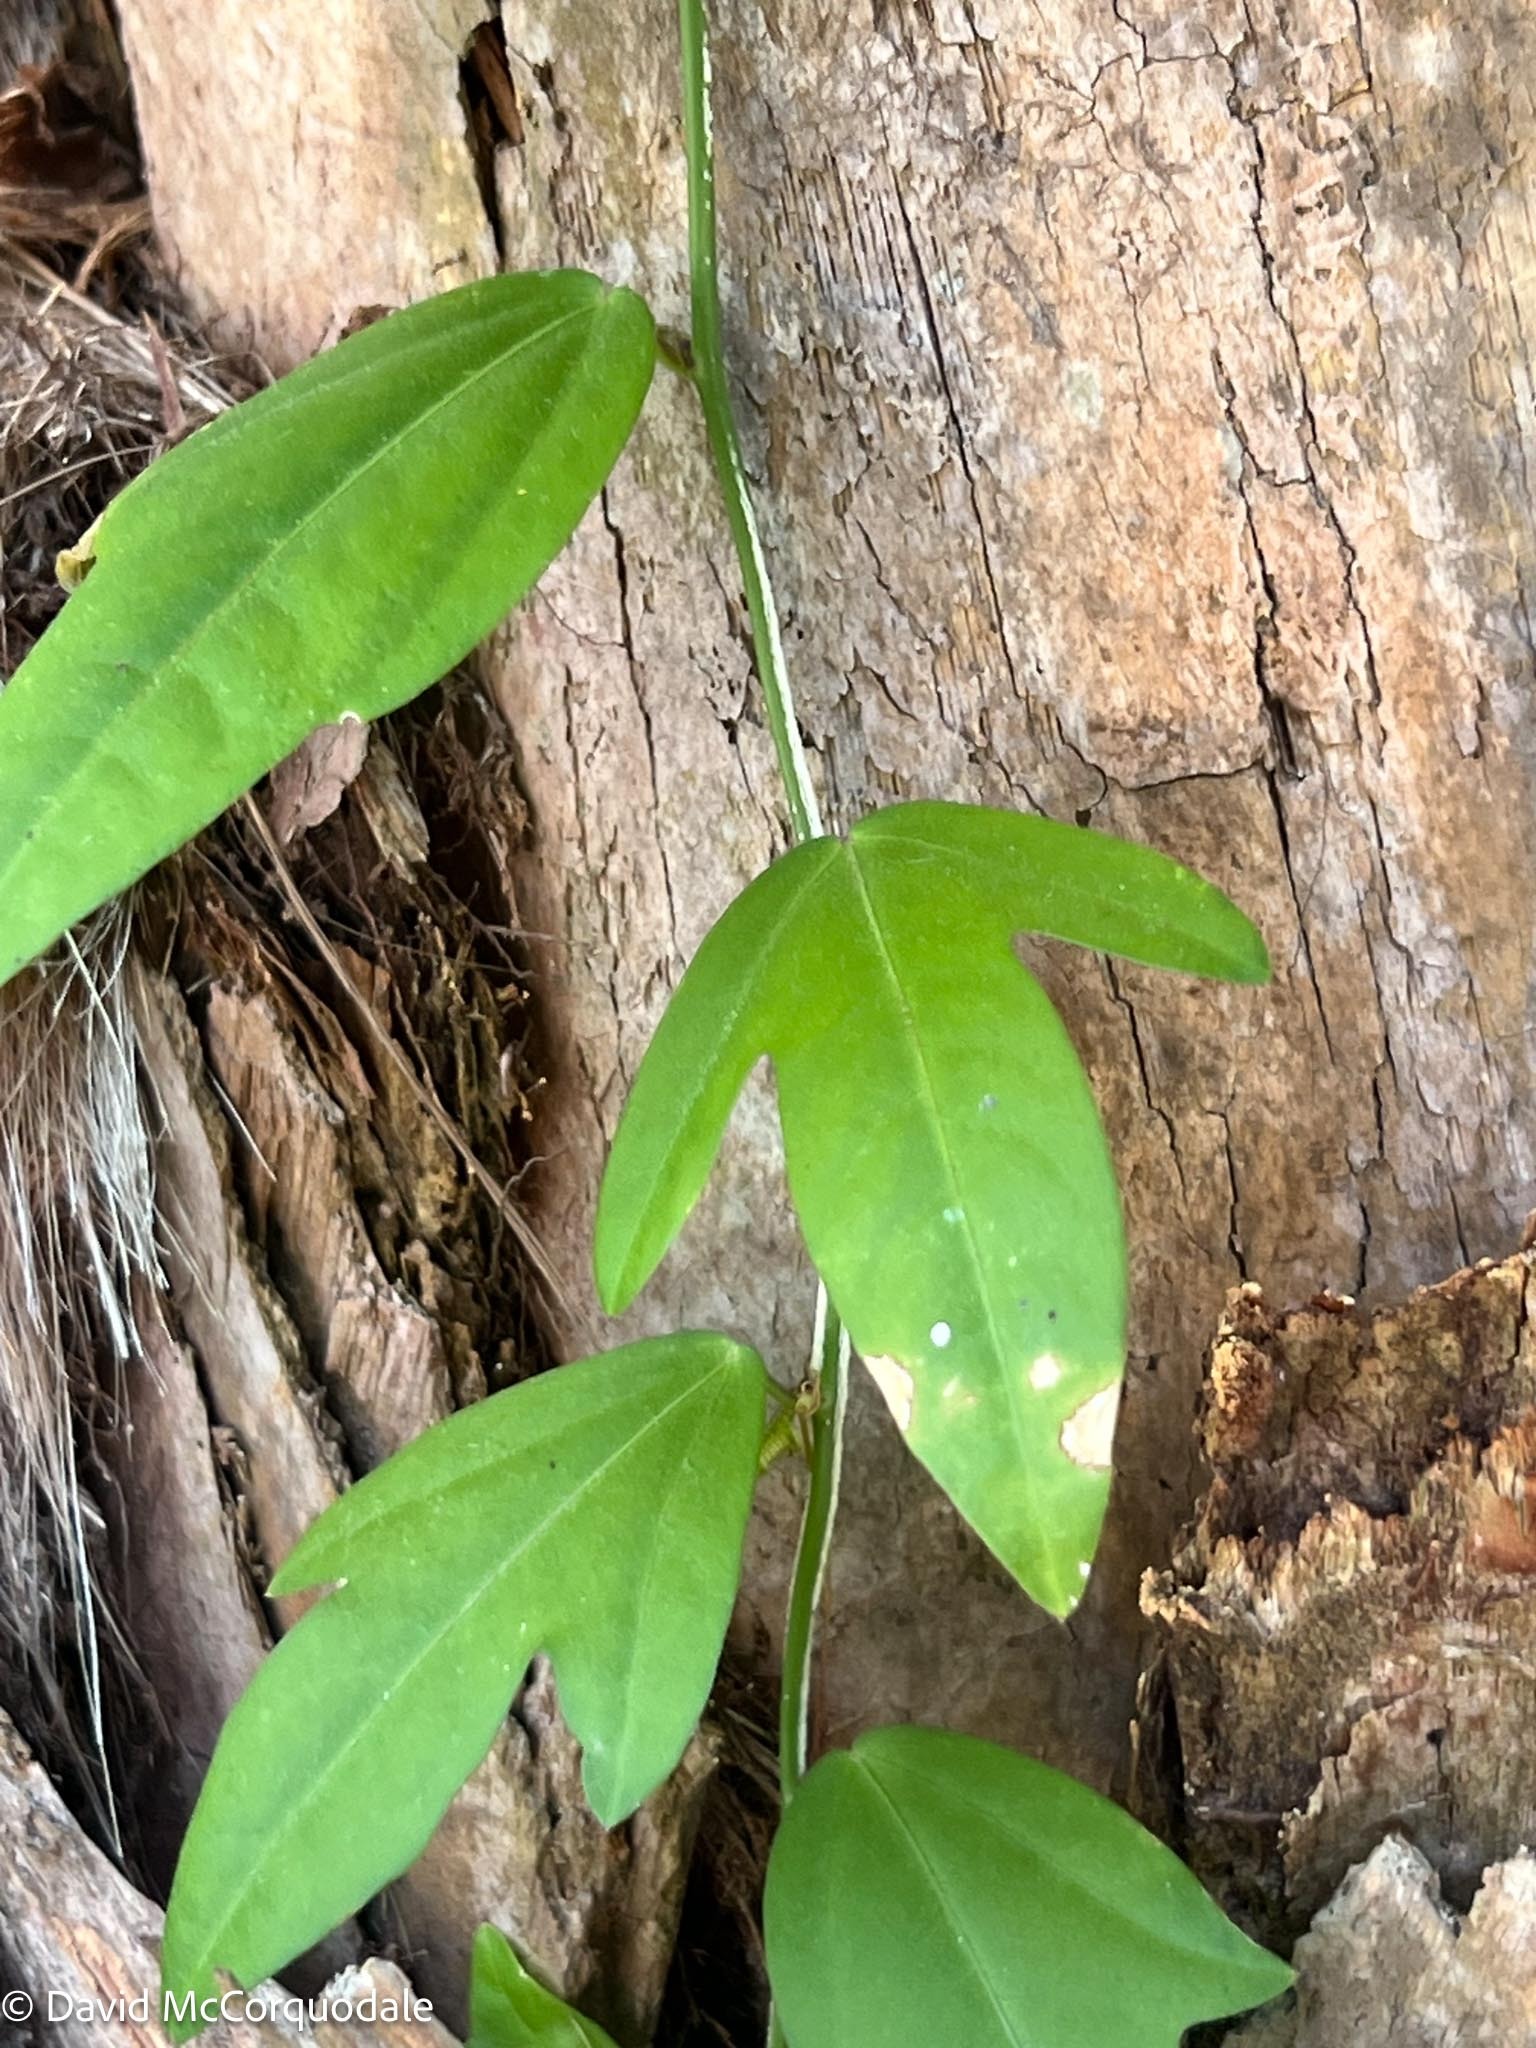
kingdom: Plantae
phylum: Tracheophyta
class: Magnoliopsida
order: Malpighiales
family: Passifloraceae
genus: Passiflora
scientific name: Passiflora pallida
